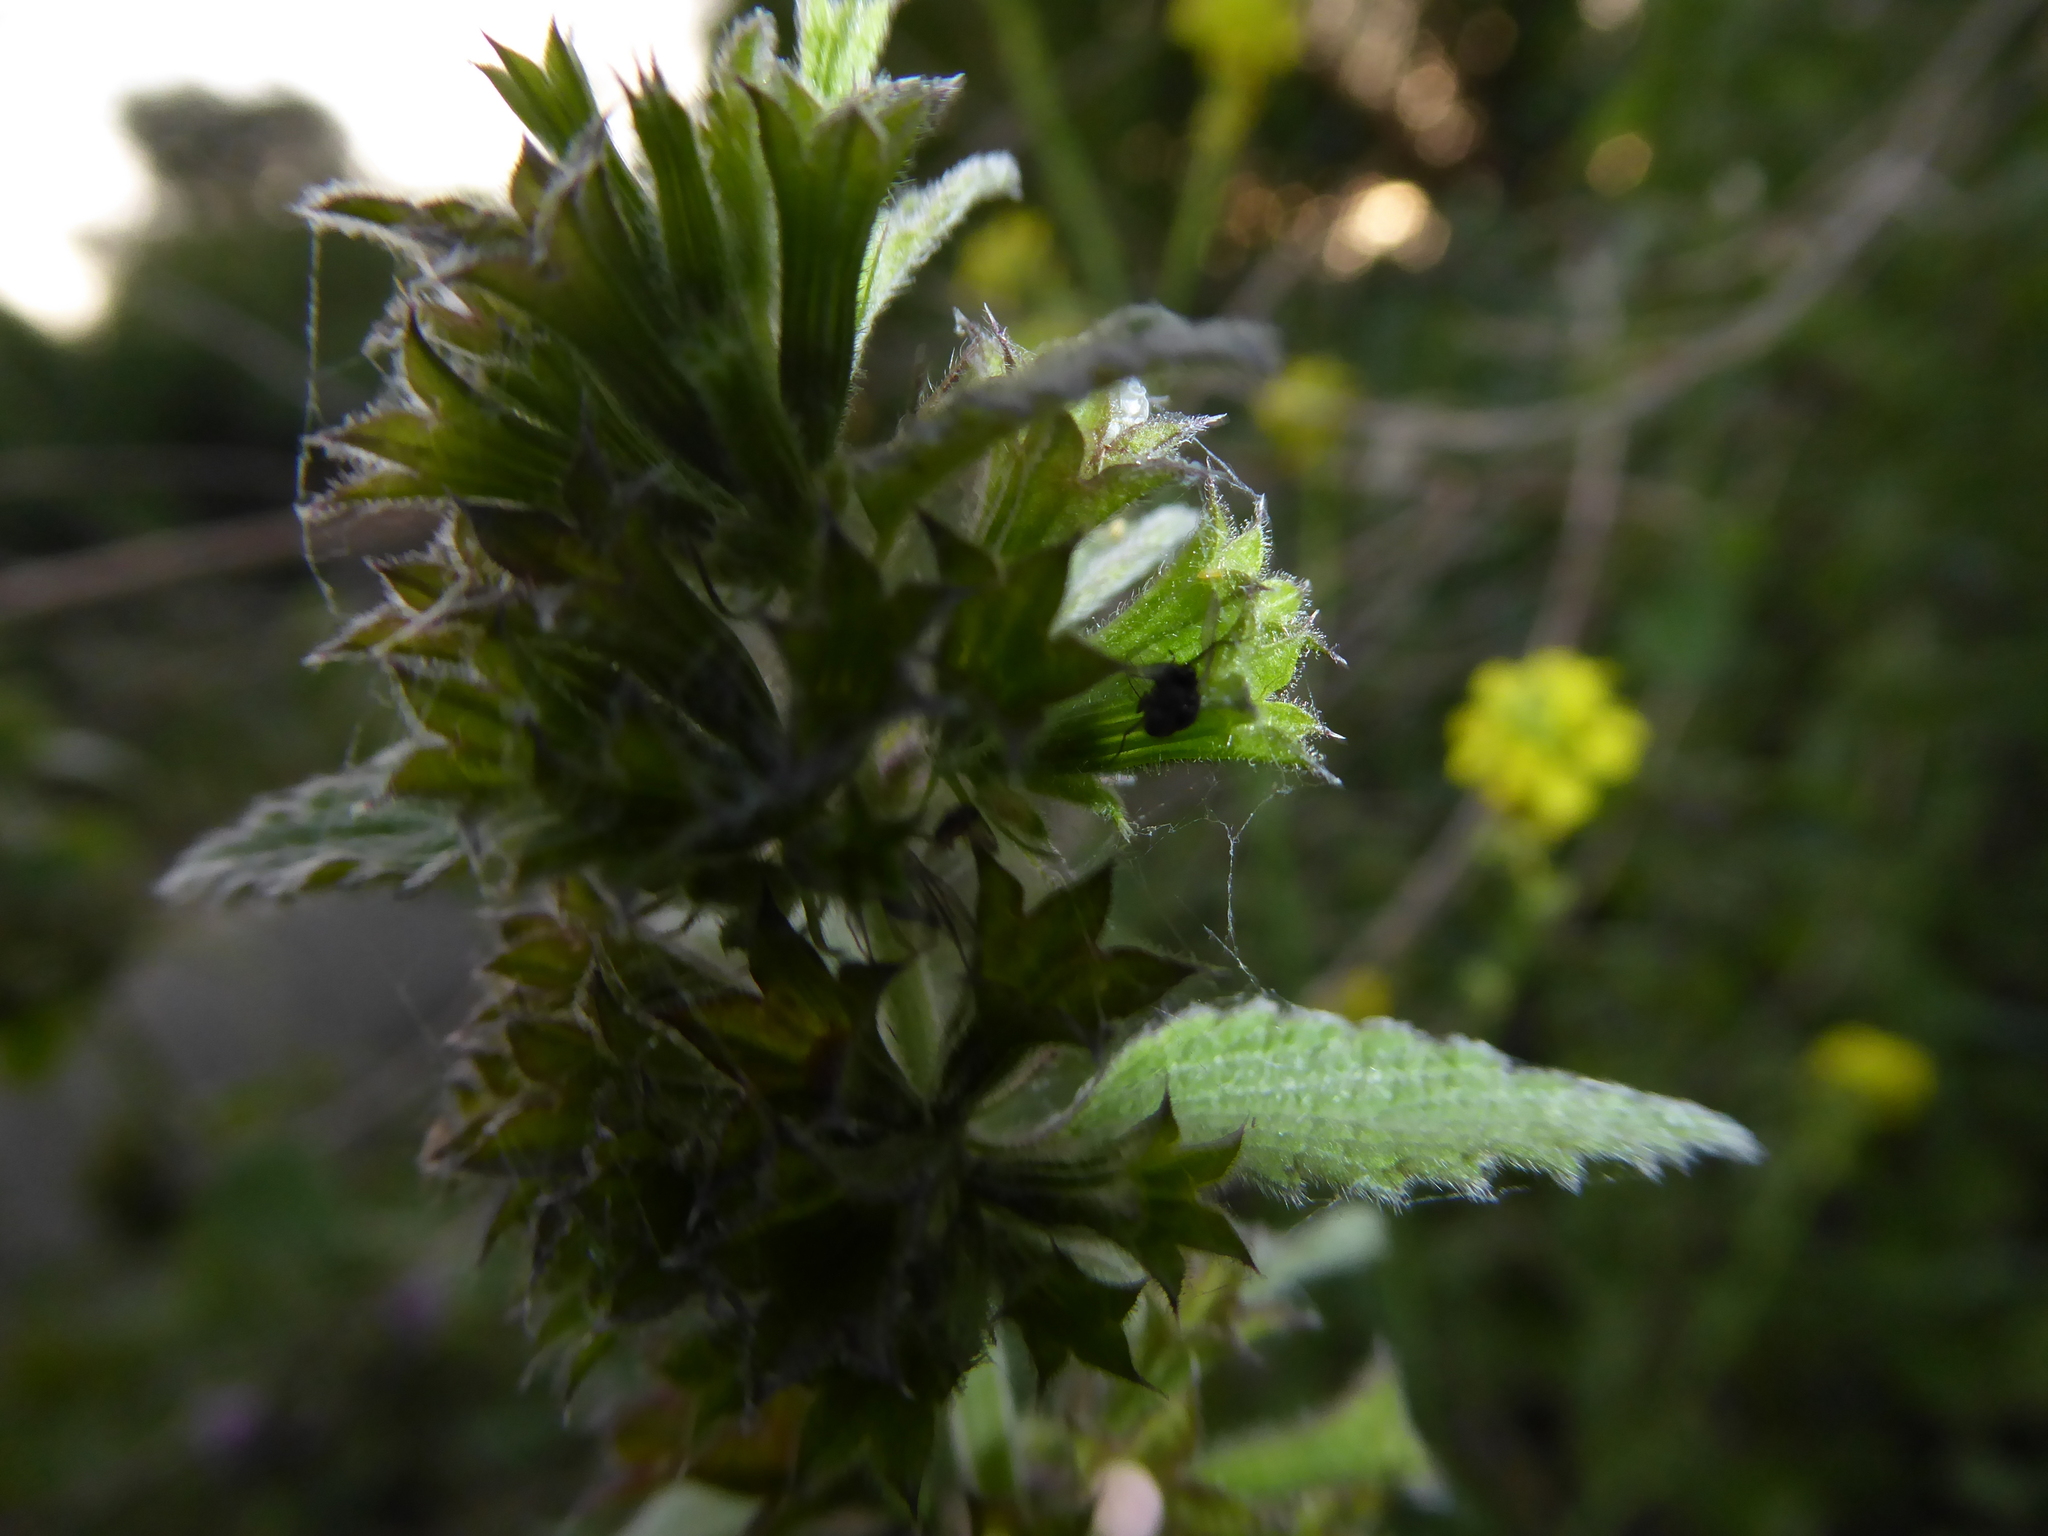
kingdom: Plantae
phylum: Tracheophyta
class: Magnoliopsida
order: Lamiales
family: Lamiaceae
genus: Ballota
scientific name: Ballota nigra
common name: Black horehound
